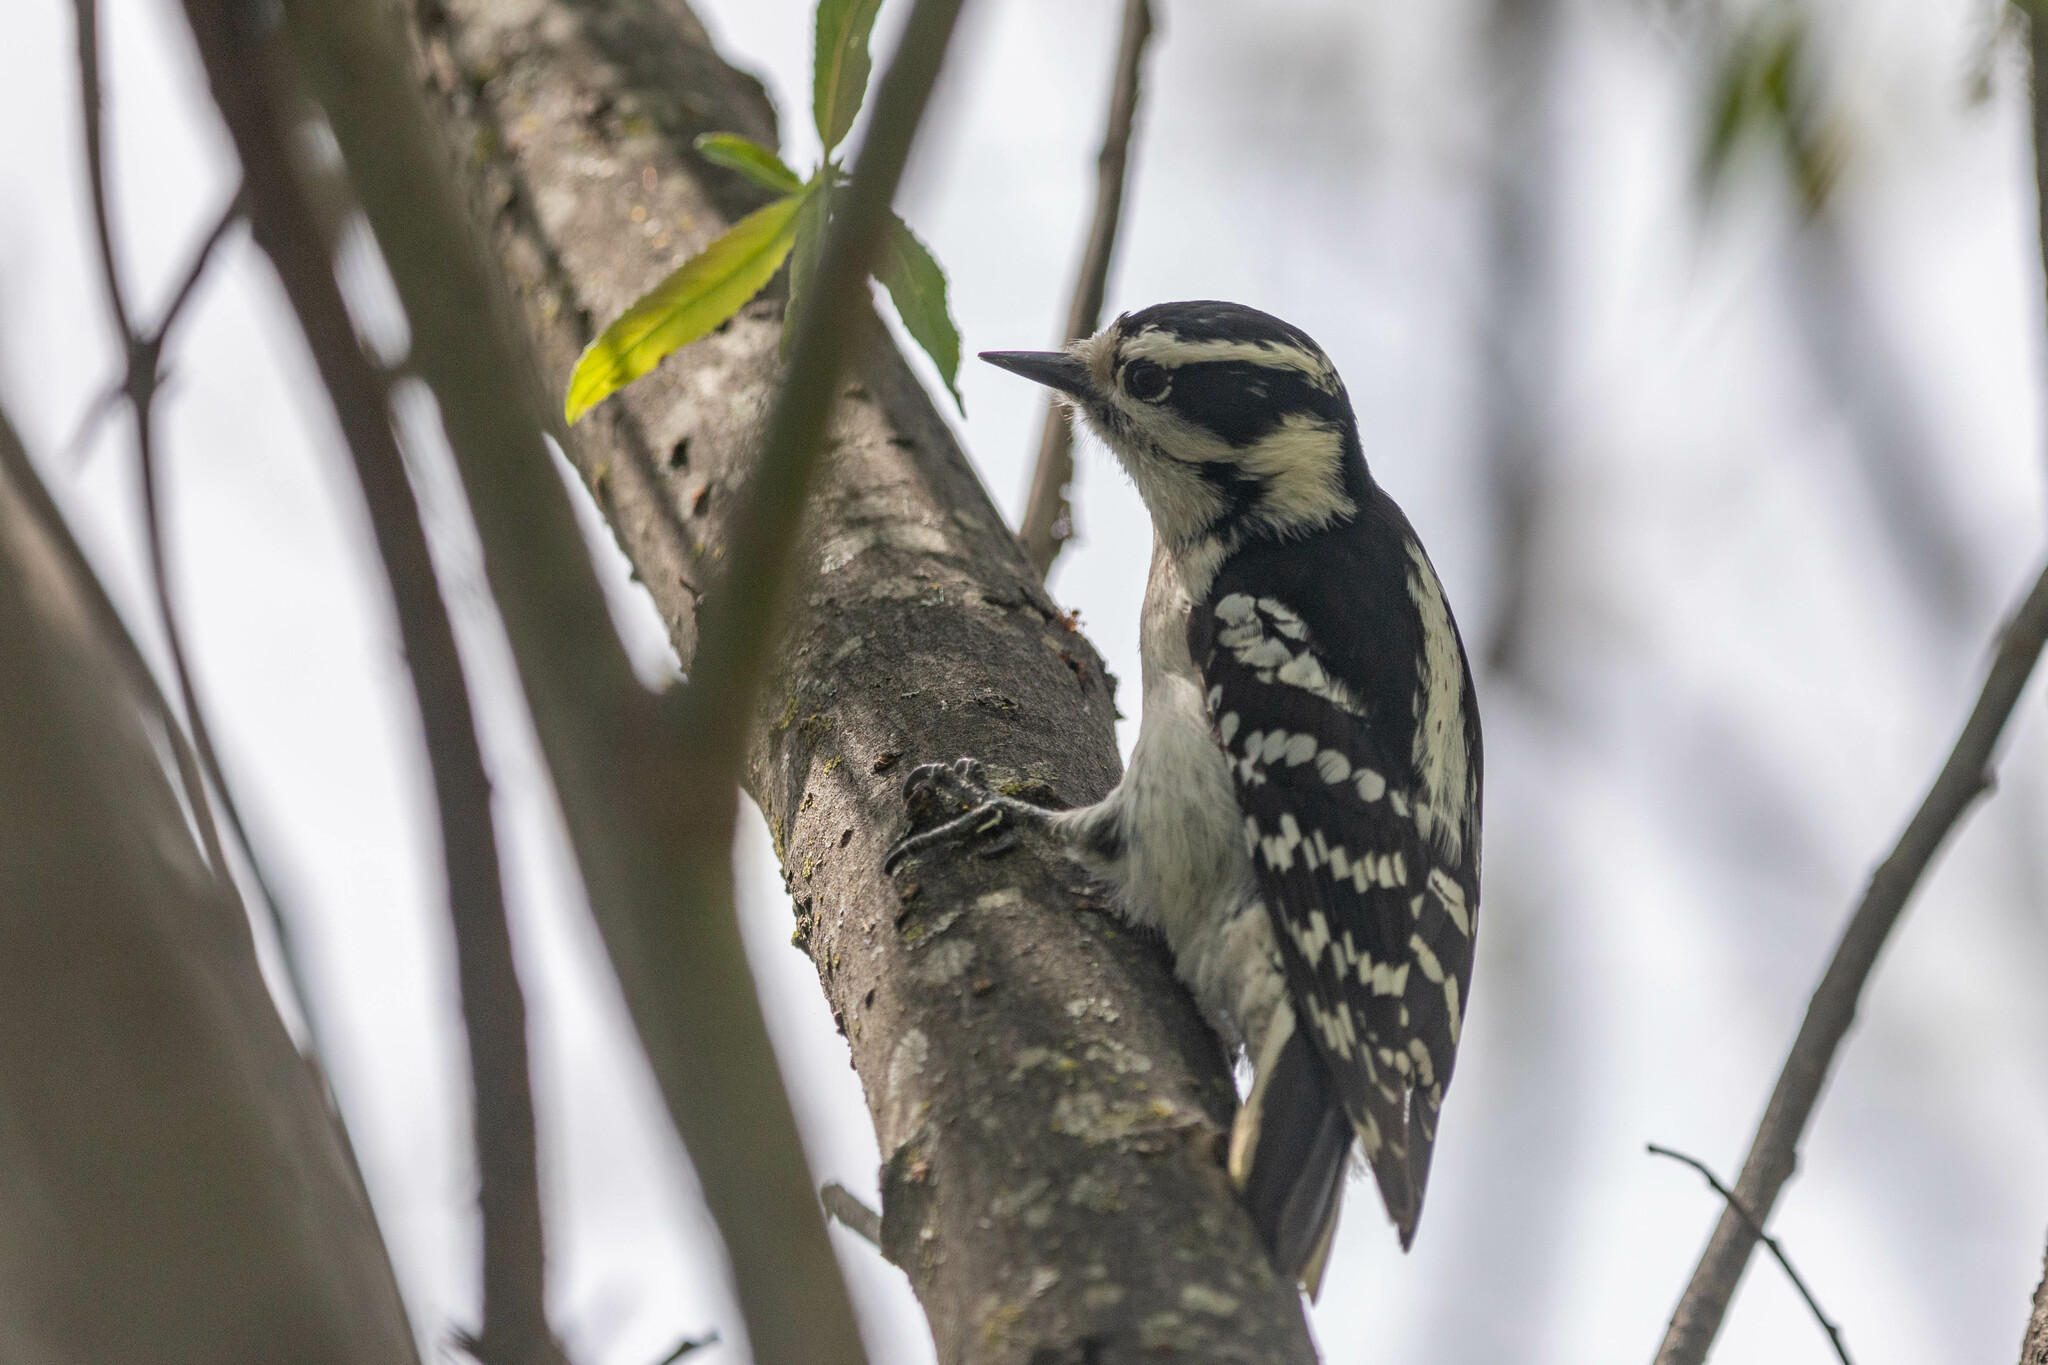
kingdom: Animalia
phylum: Chordata
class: Aves
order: Piciformes
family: Picidae
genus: Dryobates
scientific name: Dryobates pubescens
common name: Downy woodpecker
